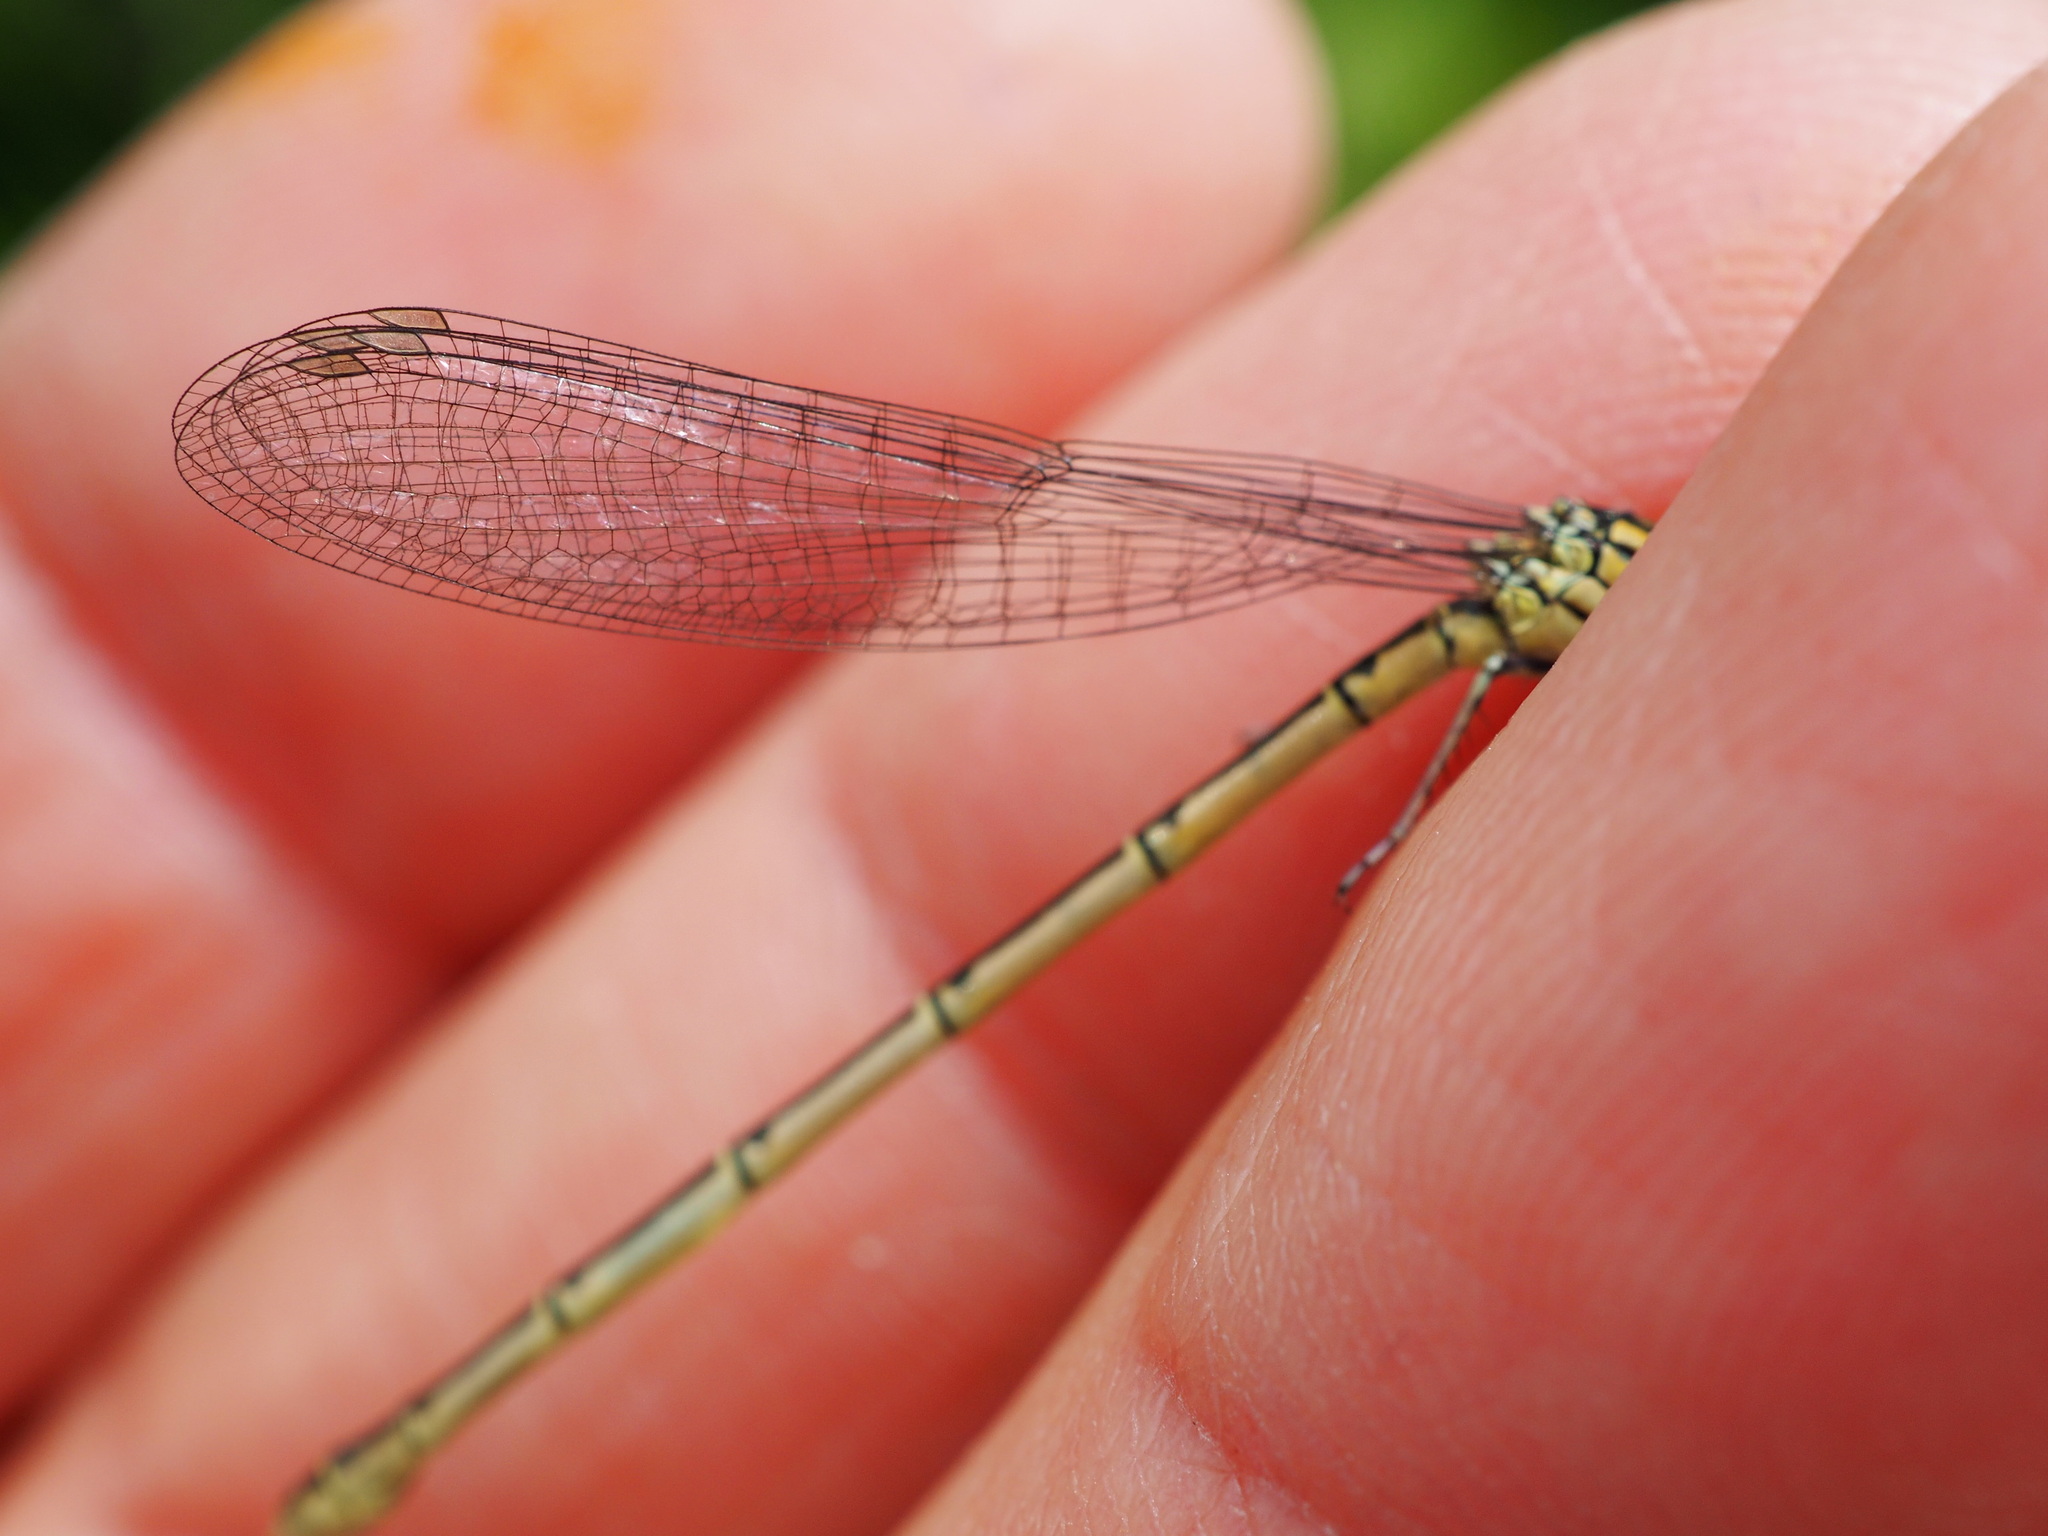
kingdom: Animalia
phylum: Arthropoda
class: Insecta
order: Odonata
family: Coenagrionidae
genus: Erythromma
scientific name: Erythromma lindenii
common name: Blue-eye
